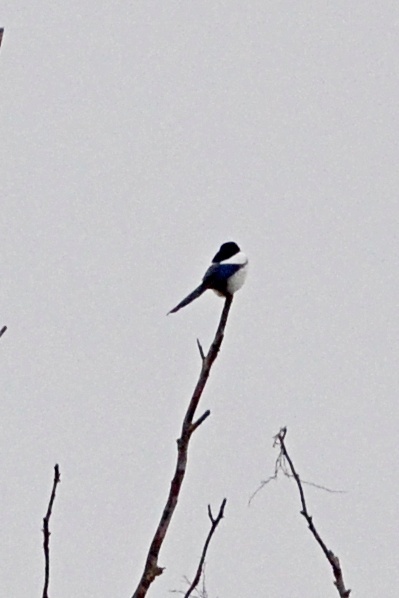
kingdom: Animalia
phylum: Chordata
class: Aves
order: Passeriformes
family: Corvidae
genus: Pica
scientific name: Pica pica
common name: Eurasian magpie
